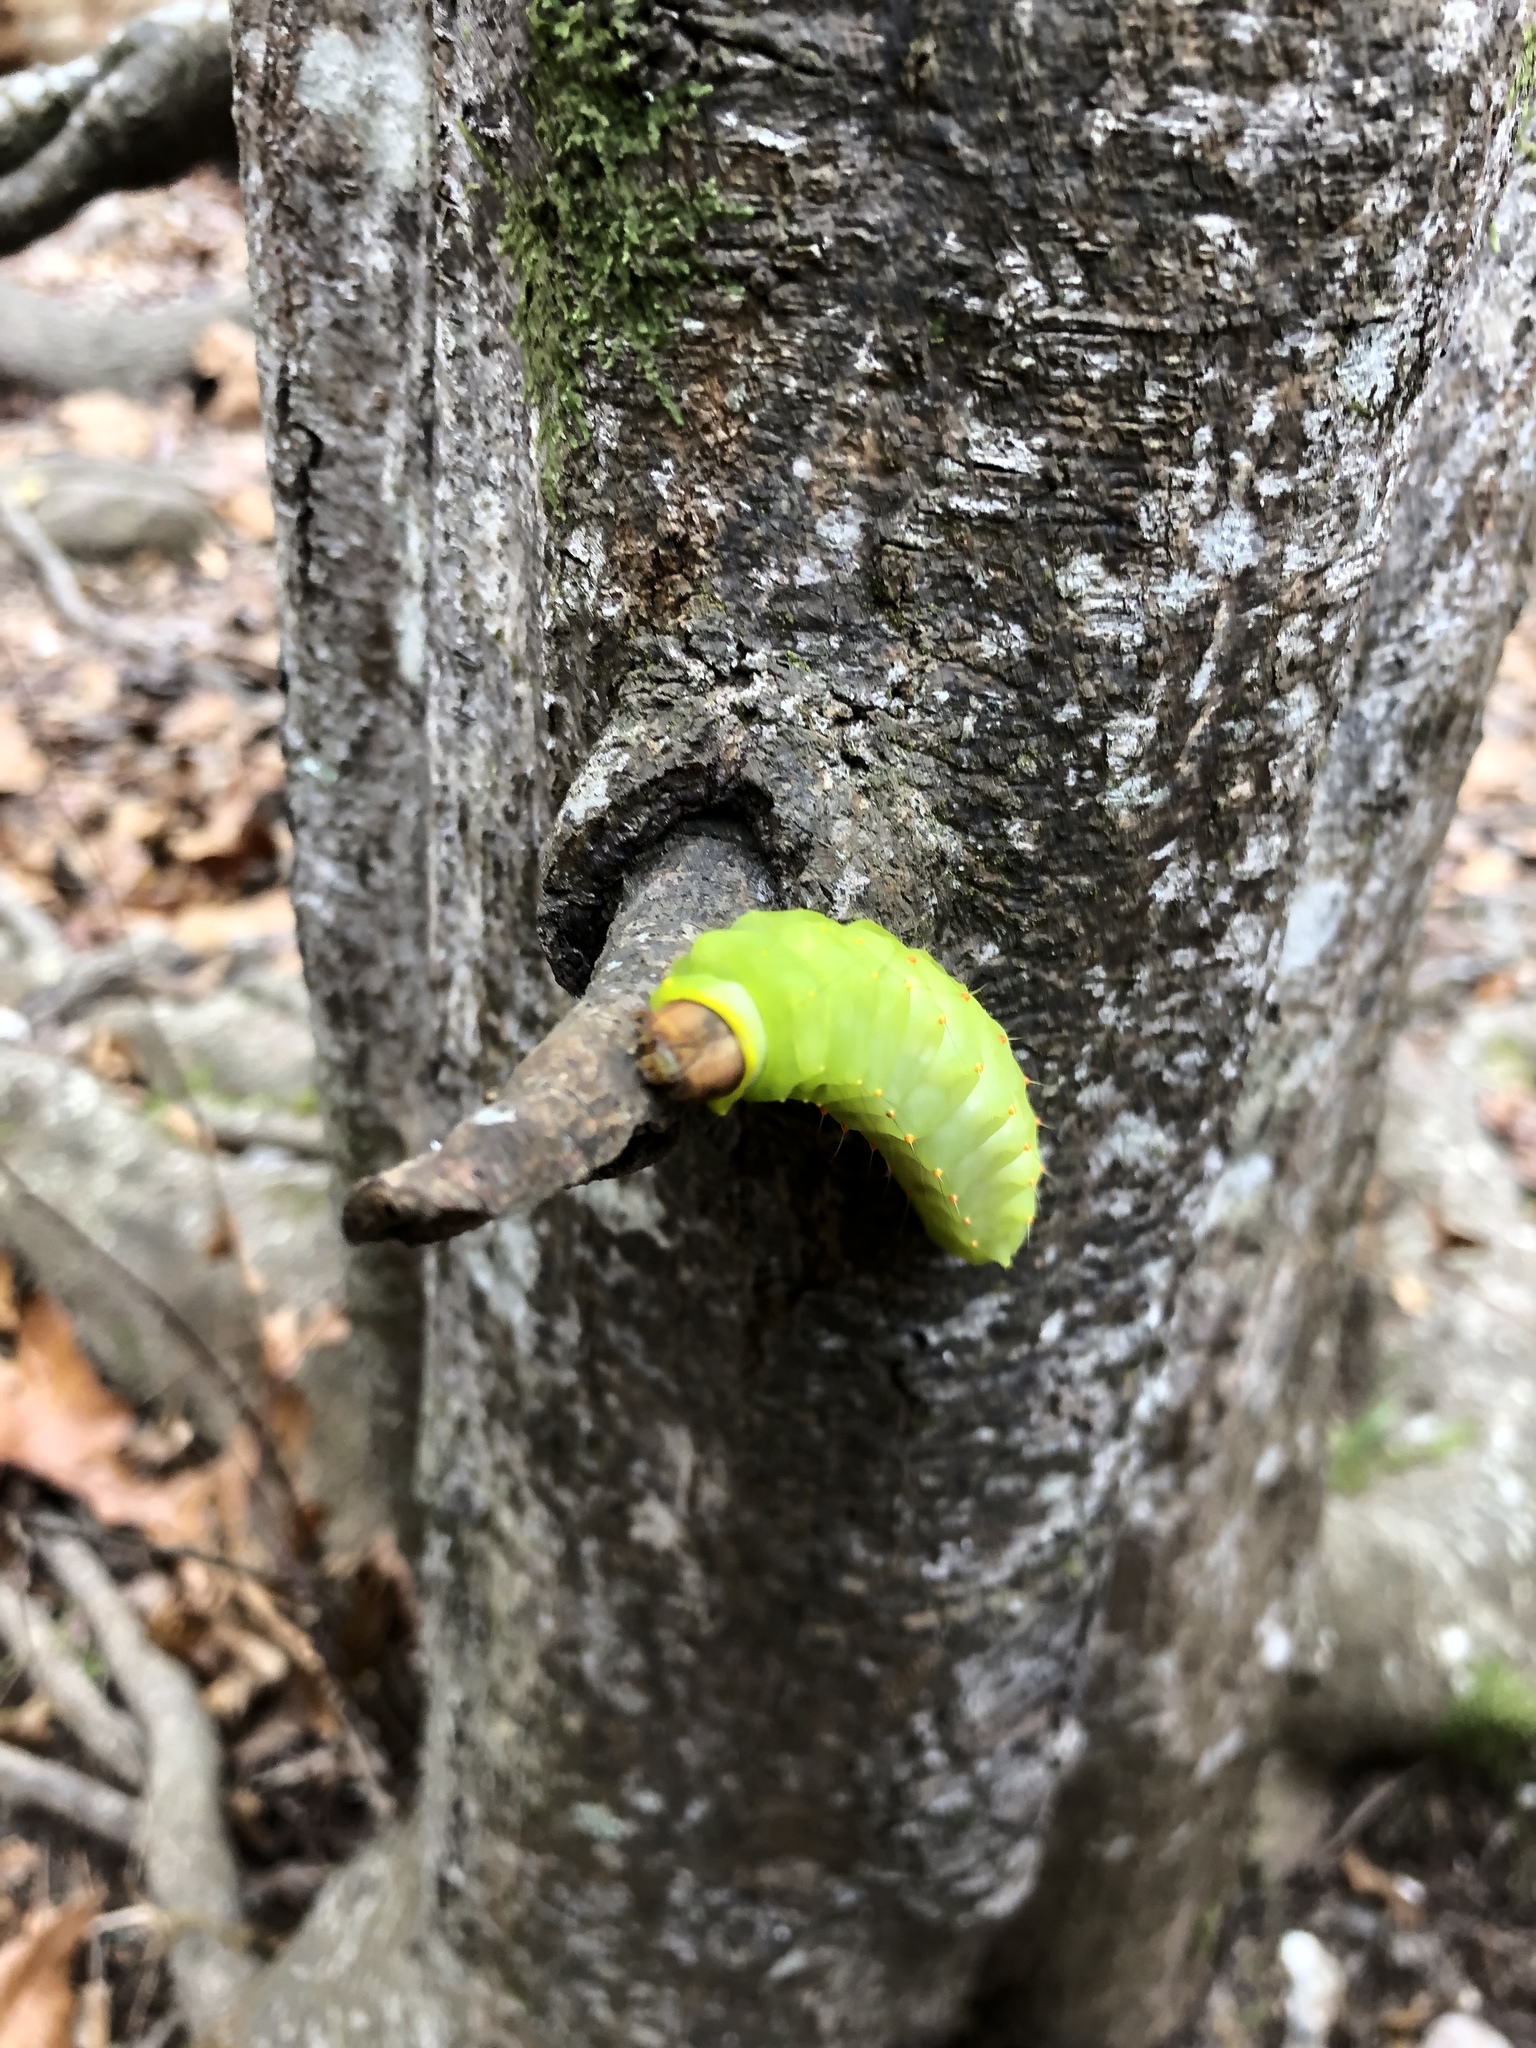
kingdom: Animalia
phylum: Arthropoda
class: Insecta
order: Lepidoptera
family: Saturniidae
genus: Antheraea
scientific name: Antheraea polyphemus
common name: Polyphemus moth
